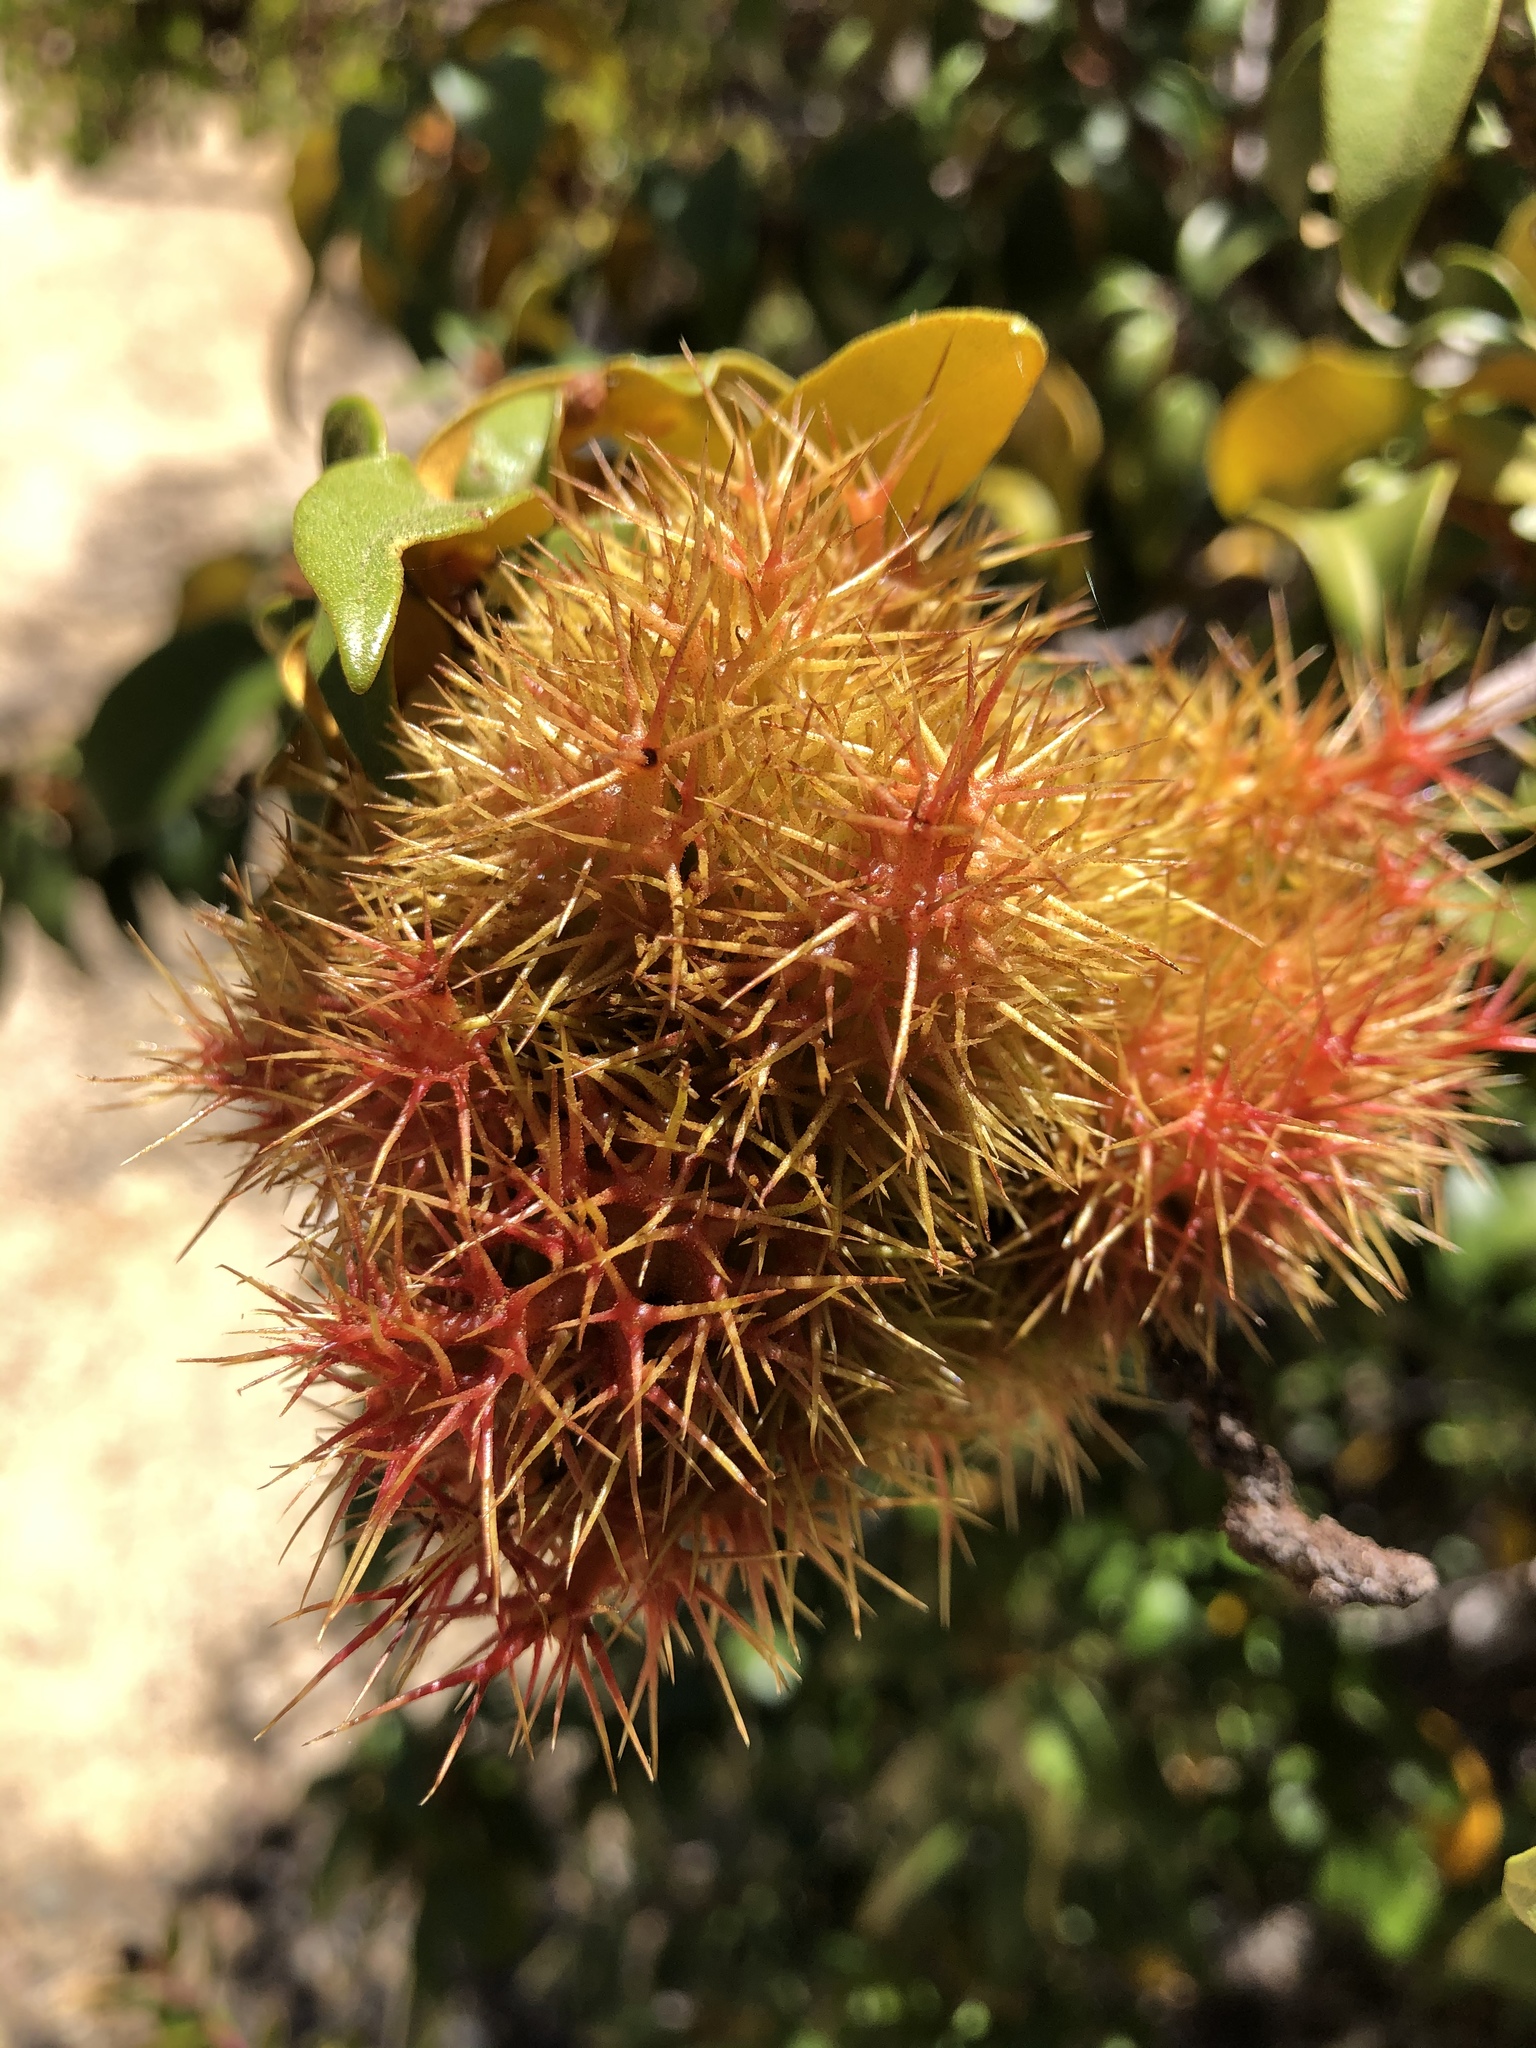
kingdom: Plantae
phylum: Tracheophyta
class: Magnoliopsida
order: Fagales
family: Fagaceae
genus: Chrysolepis
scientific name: Chrysolepis chrysophylla
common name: Giant chinquapin
